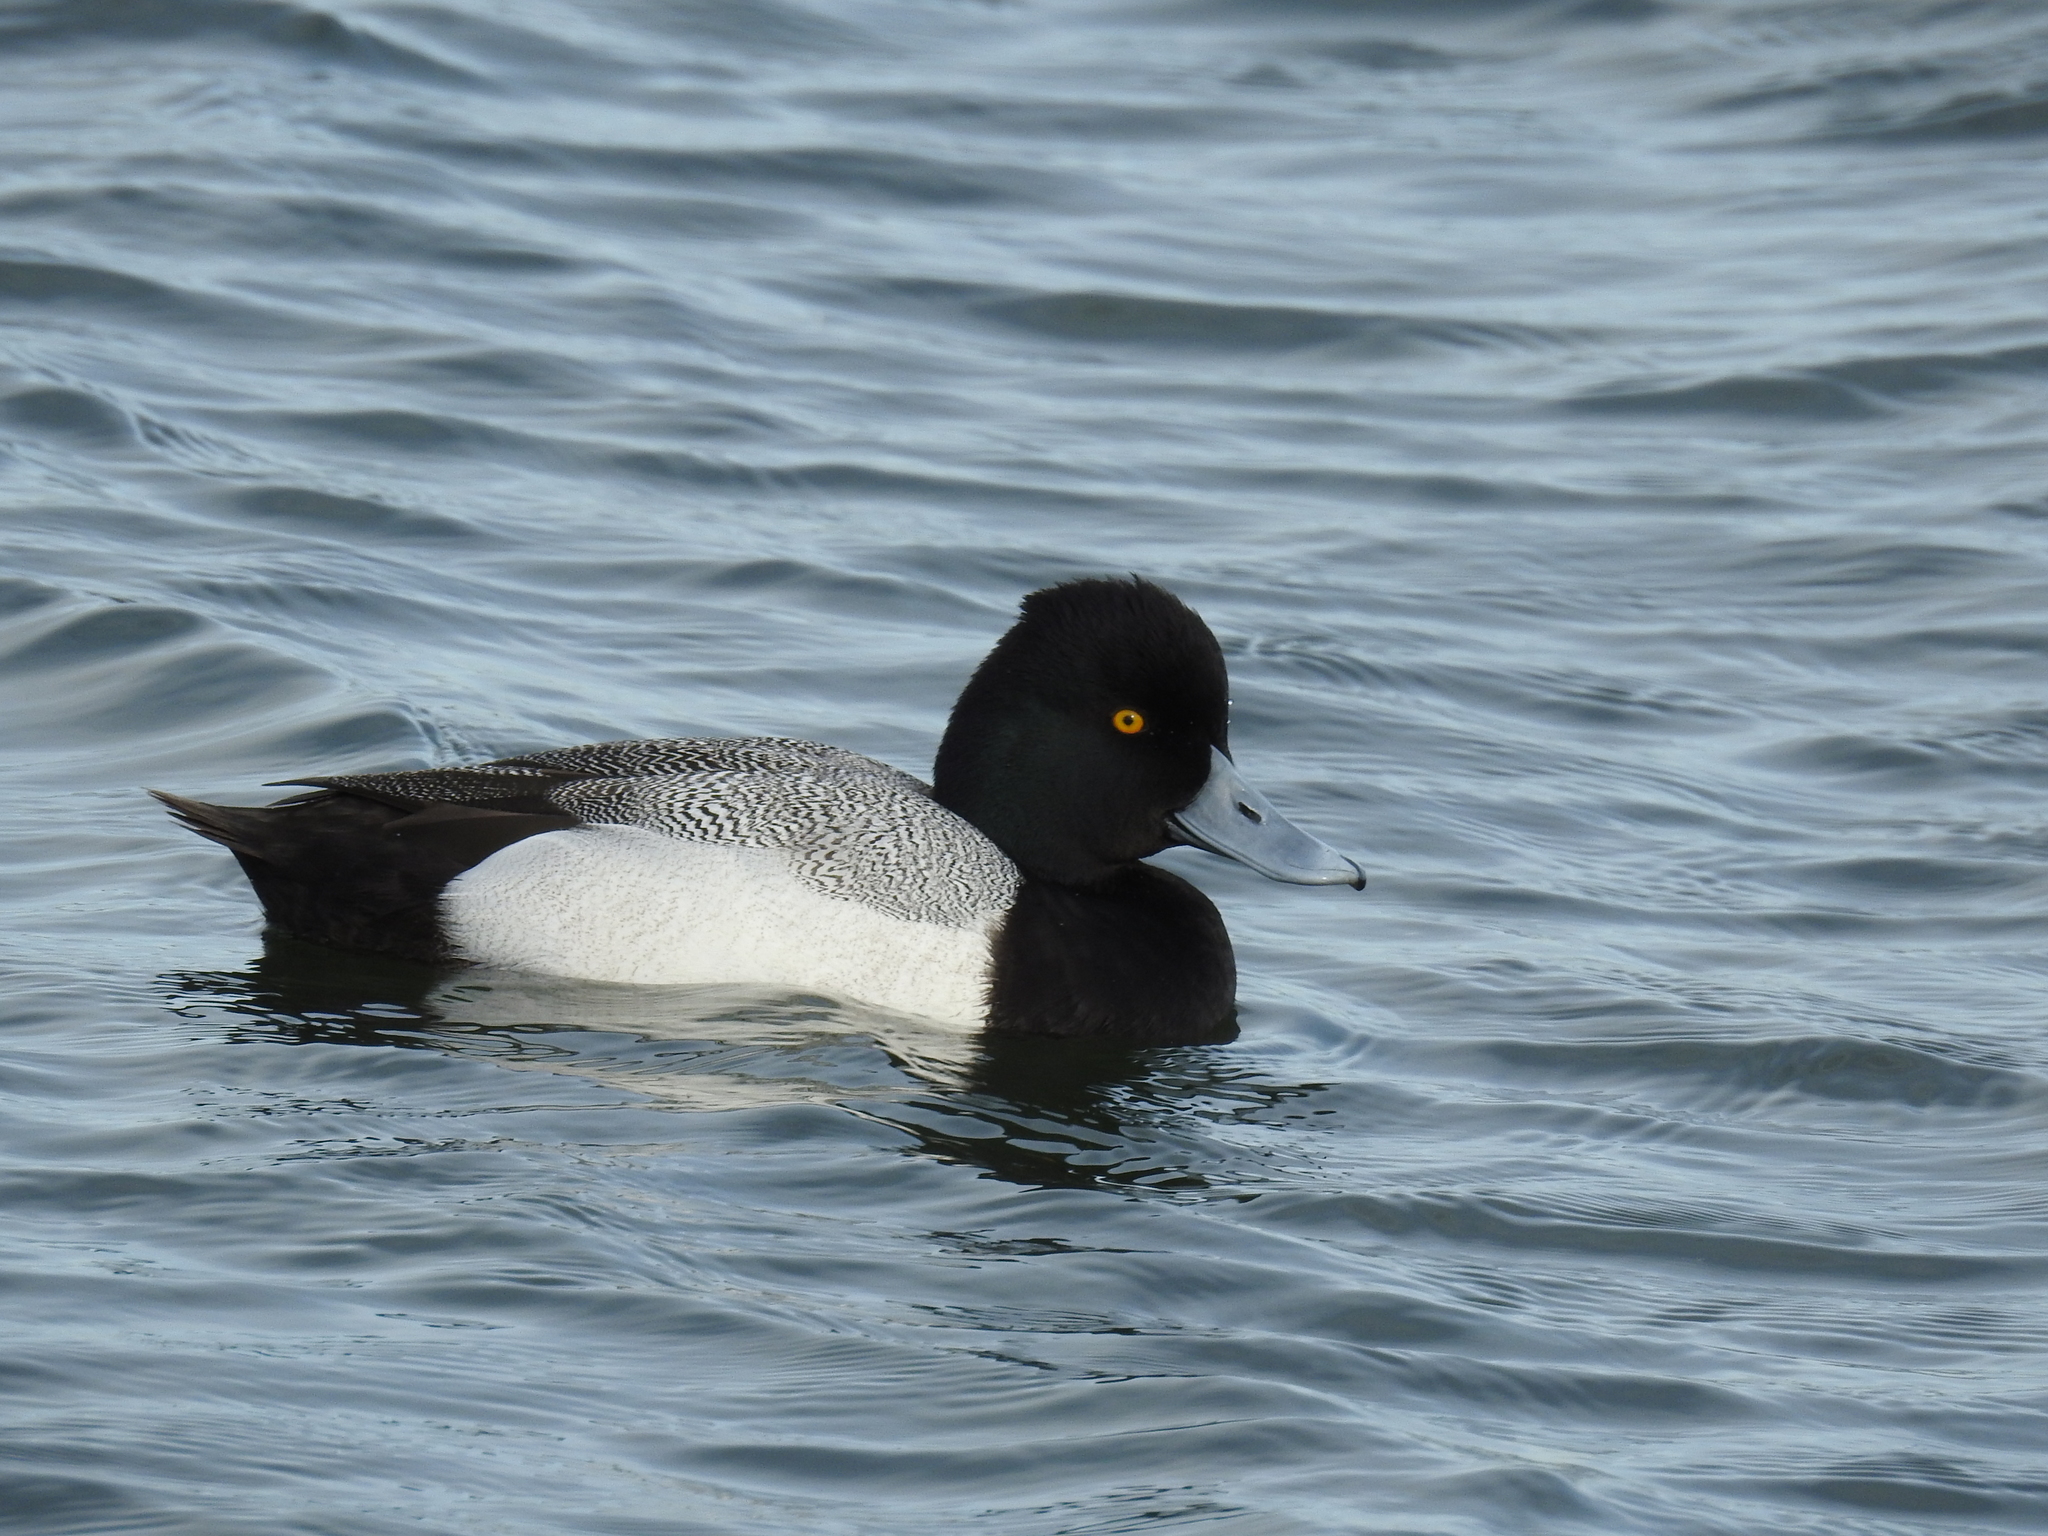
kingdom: Animalia
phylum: Chordata
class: Aves
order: Anseriformes
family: Anatidae
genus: Aythya
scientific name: Aythya affinis
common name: Lesser scaup
